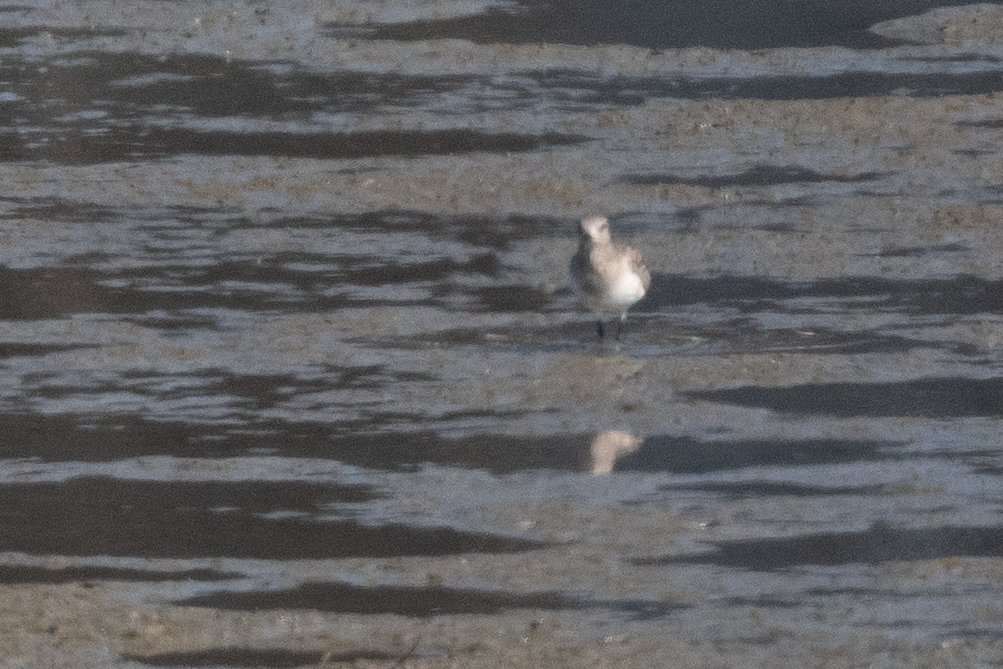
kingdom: Animalia
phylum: Chordata
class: Aves
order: Charadriiformes
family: Charadriidae
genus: Pluvialis
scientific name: Pluvialis squatarola
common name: Grey plover
